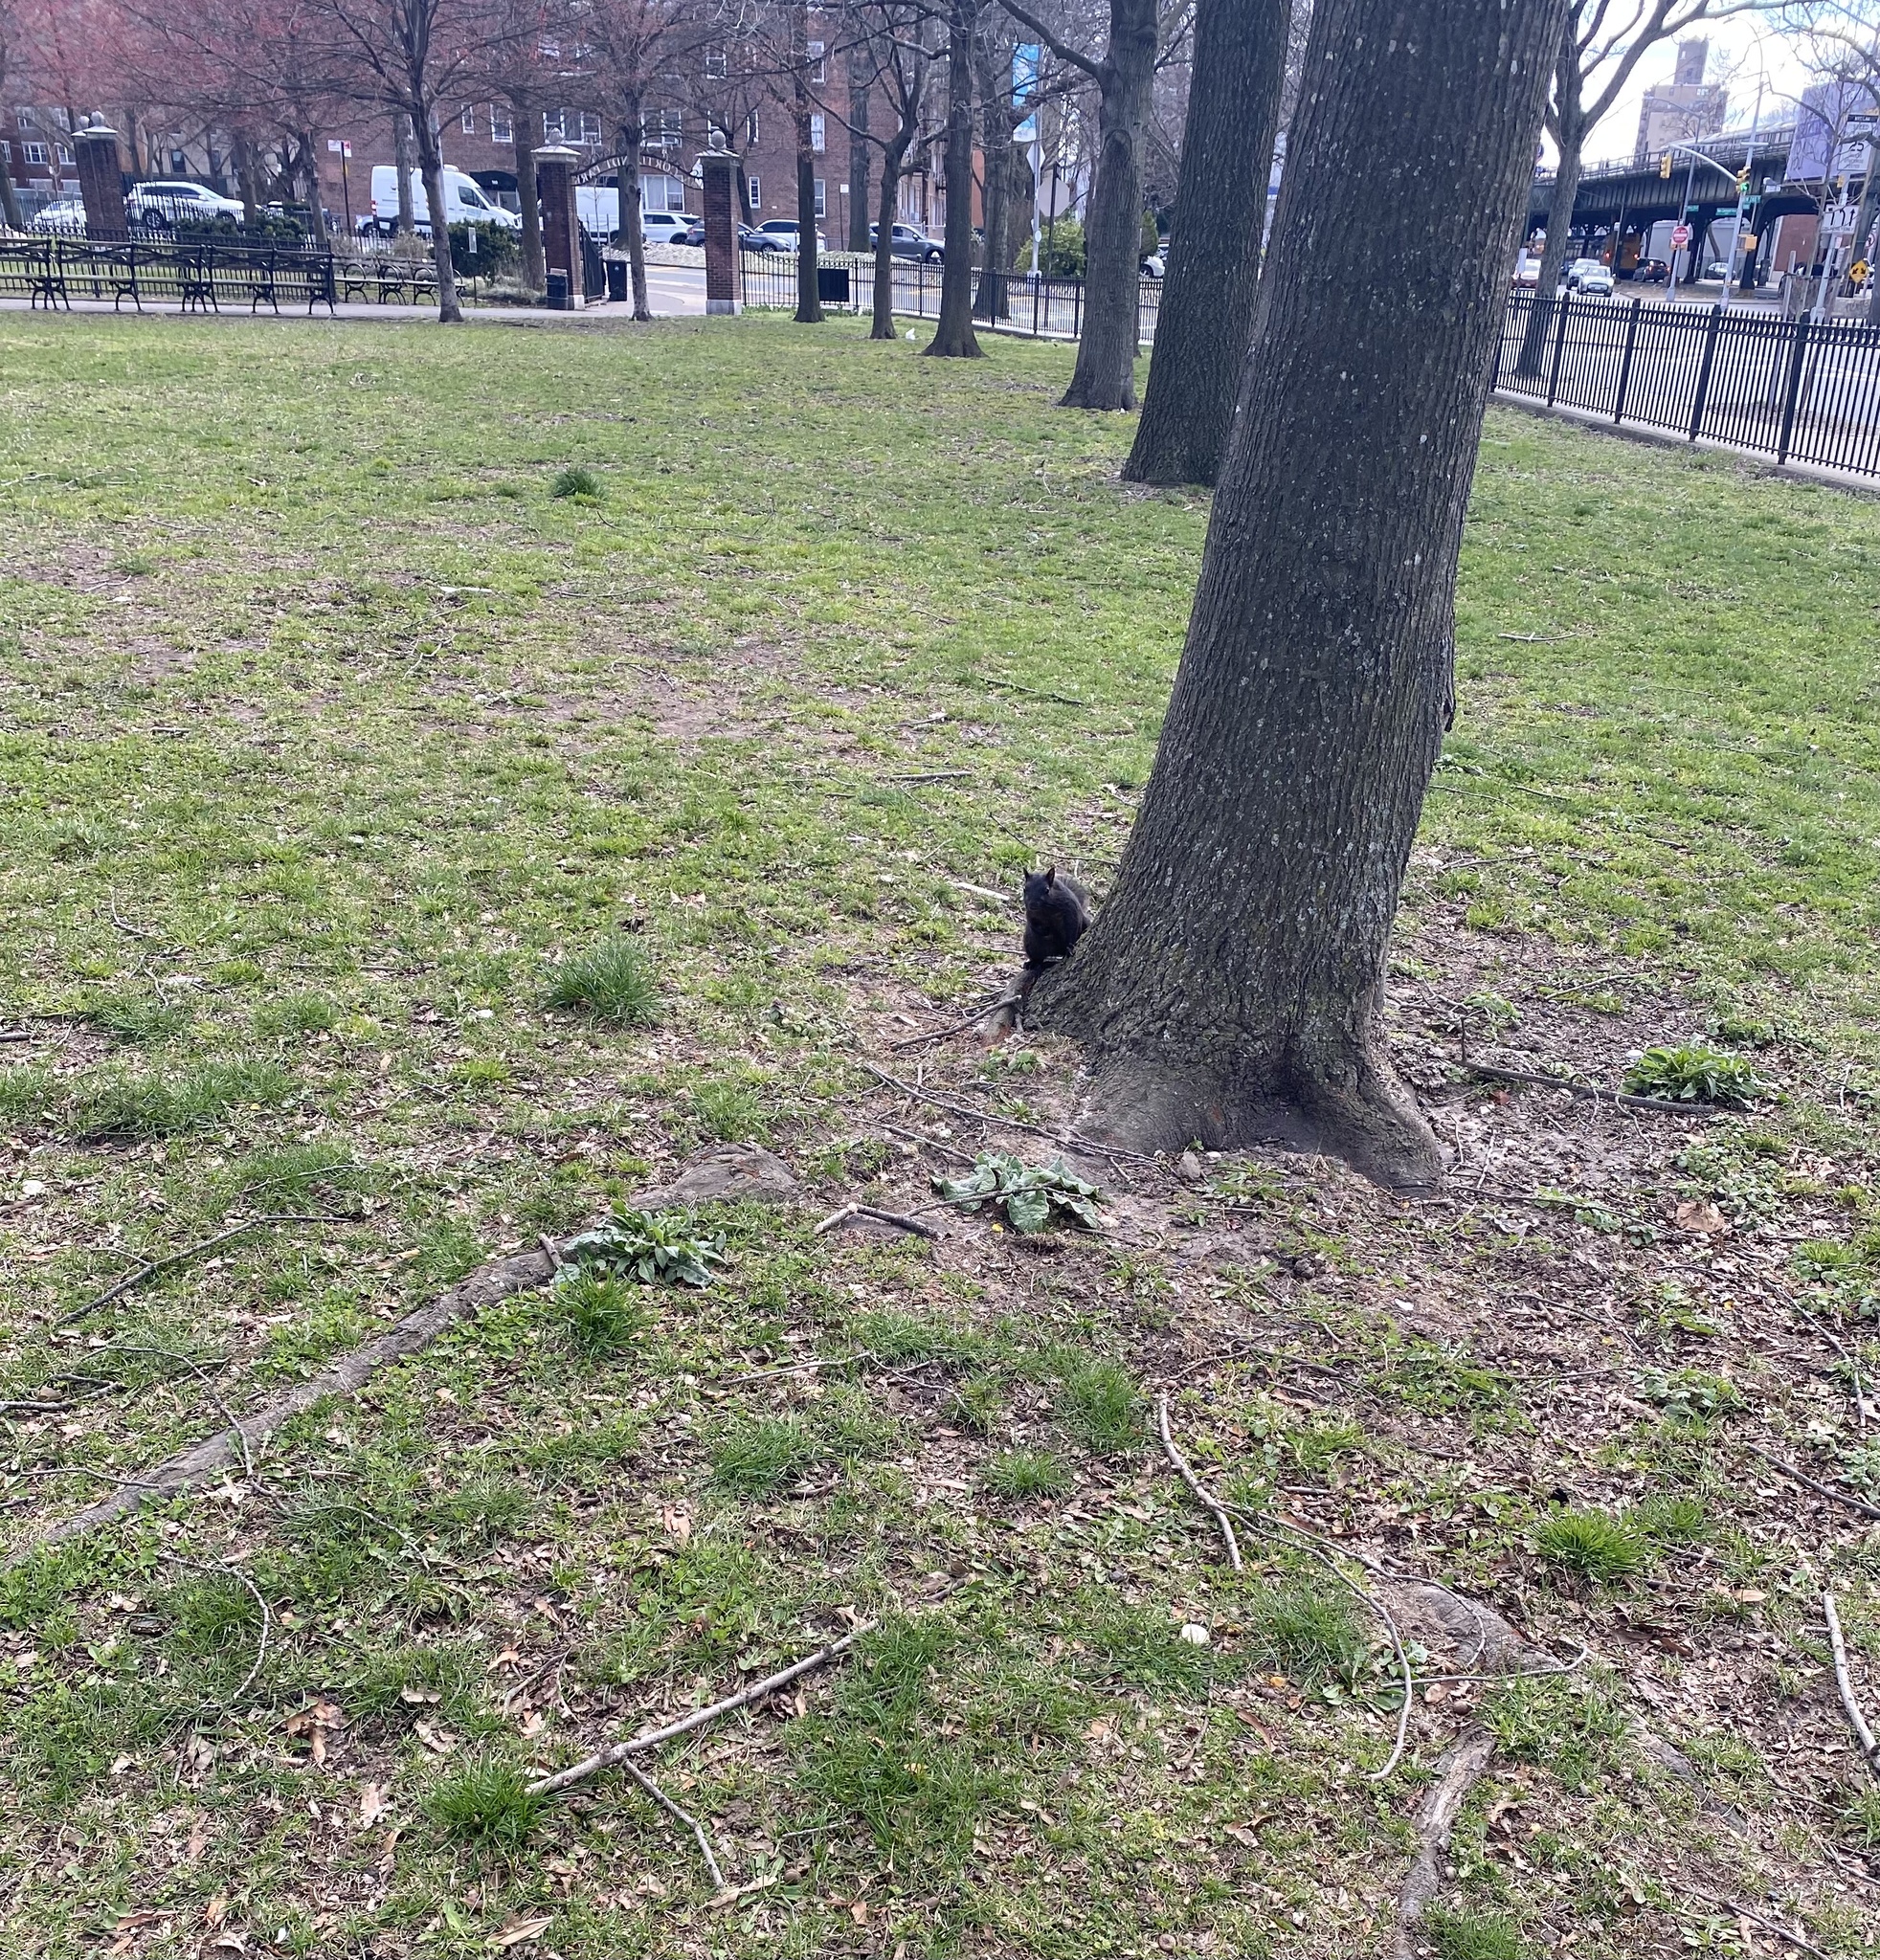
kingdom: Animalia
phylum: Chordata
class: Mammalia
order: Rodentia
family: Sciuridae
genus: Sciurus
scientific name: Sciurus carolinensis
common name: Eastern gray squirrel
